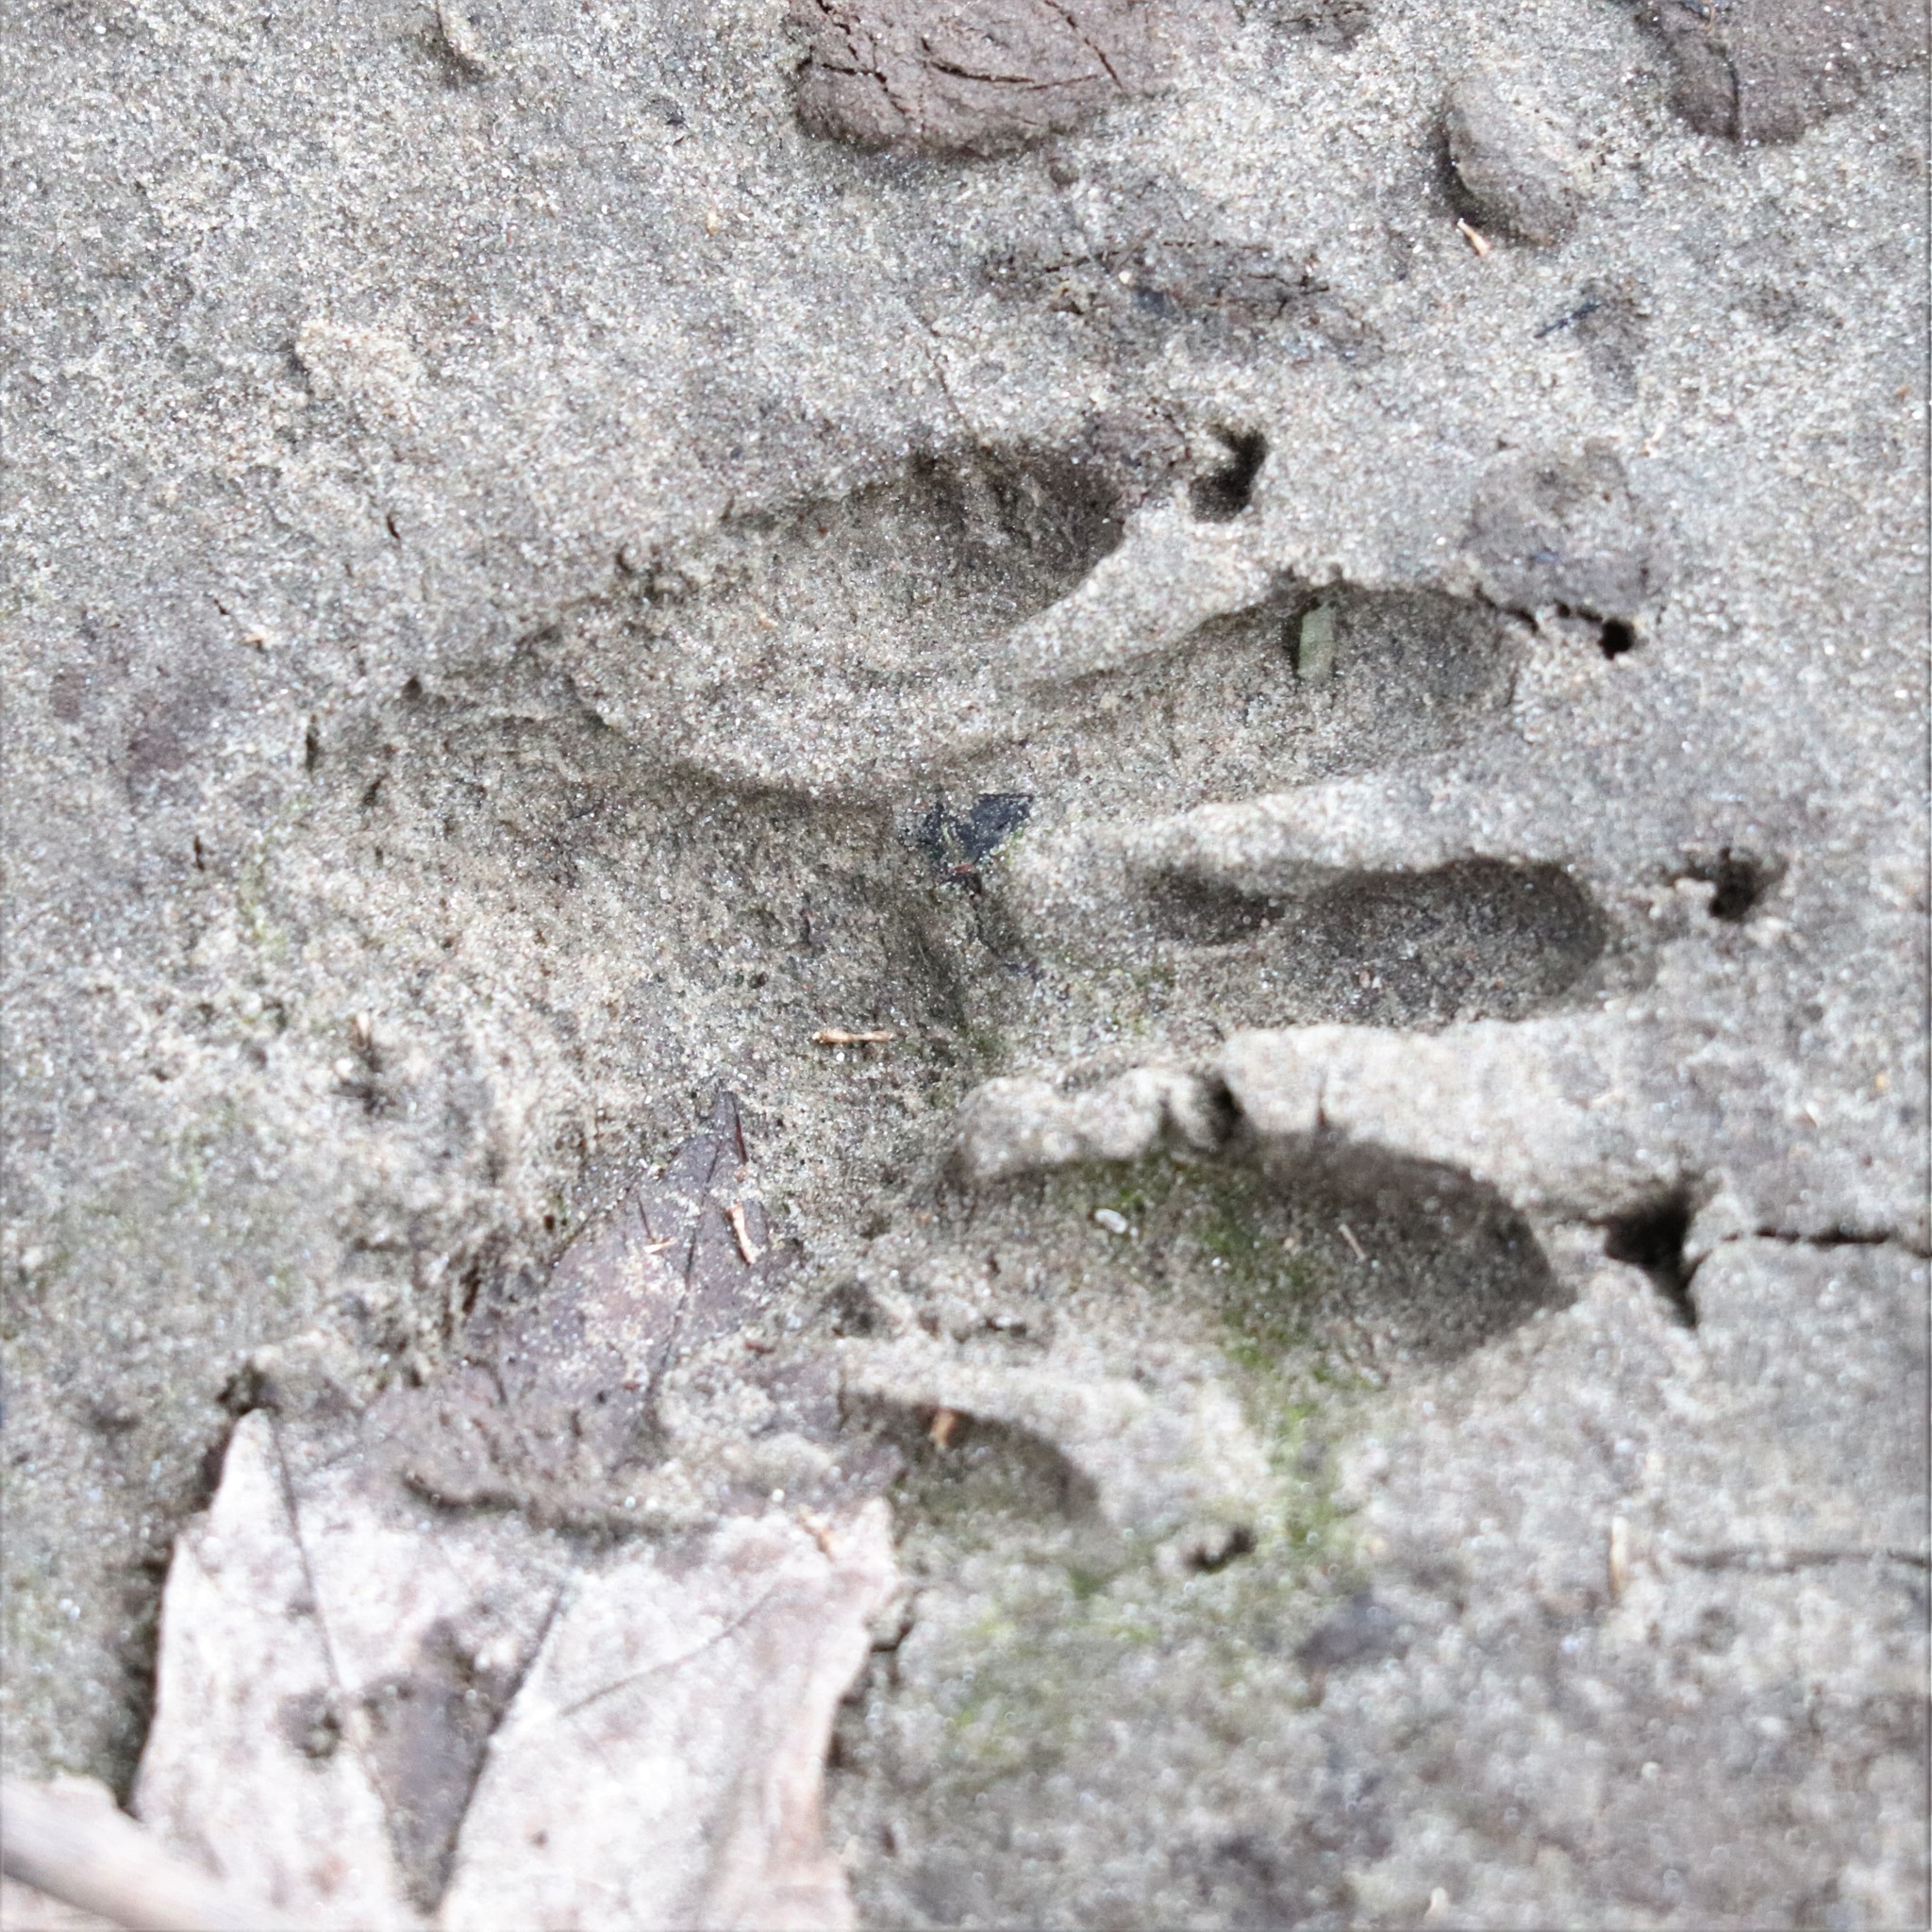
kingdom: Animalia
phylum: Chordata
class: Mammalia
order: Carnivora
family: Procyonidae
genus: Procyon
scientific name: Procyon lotor
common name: Raccoon
